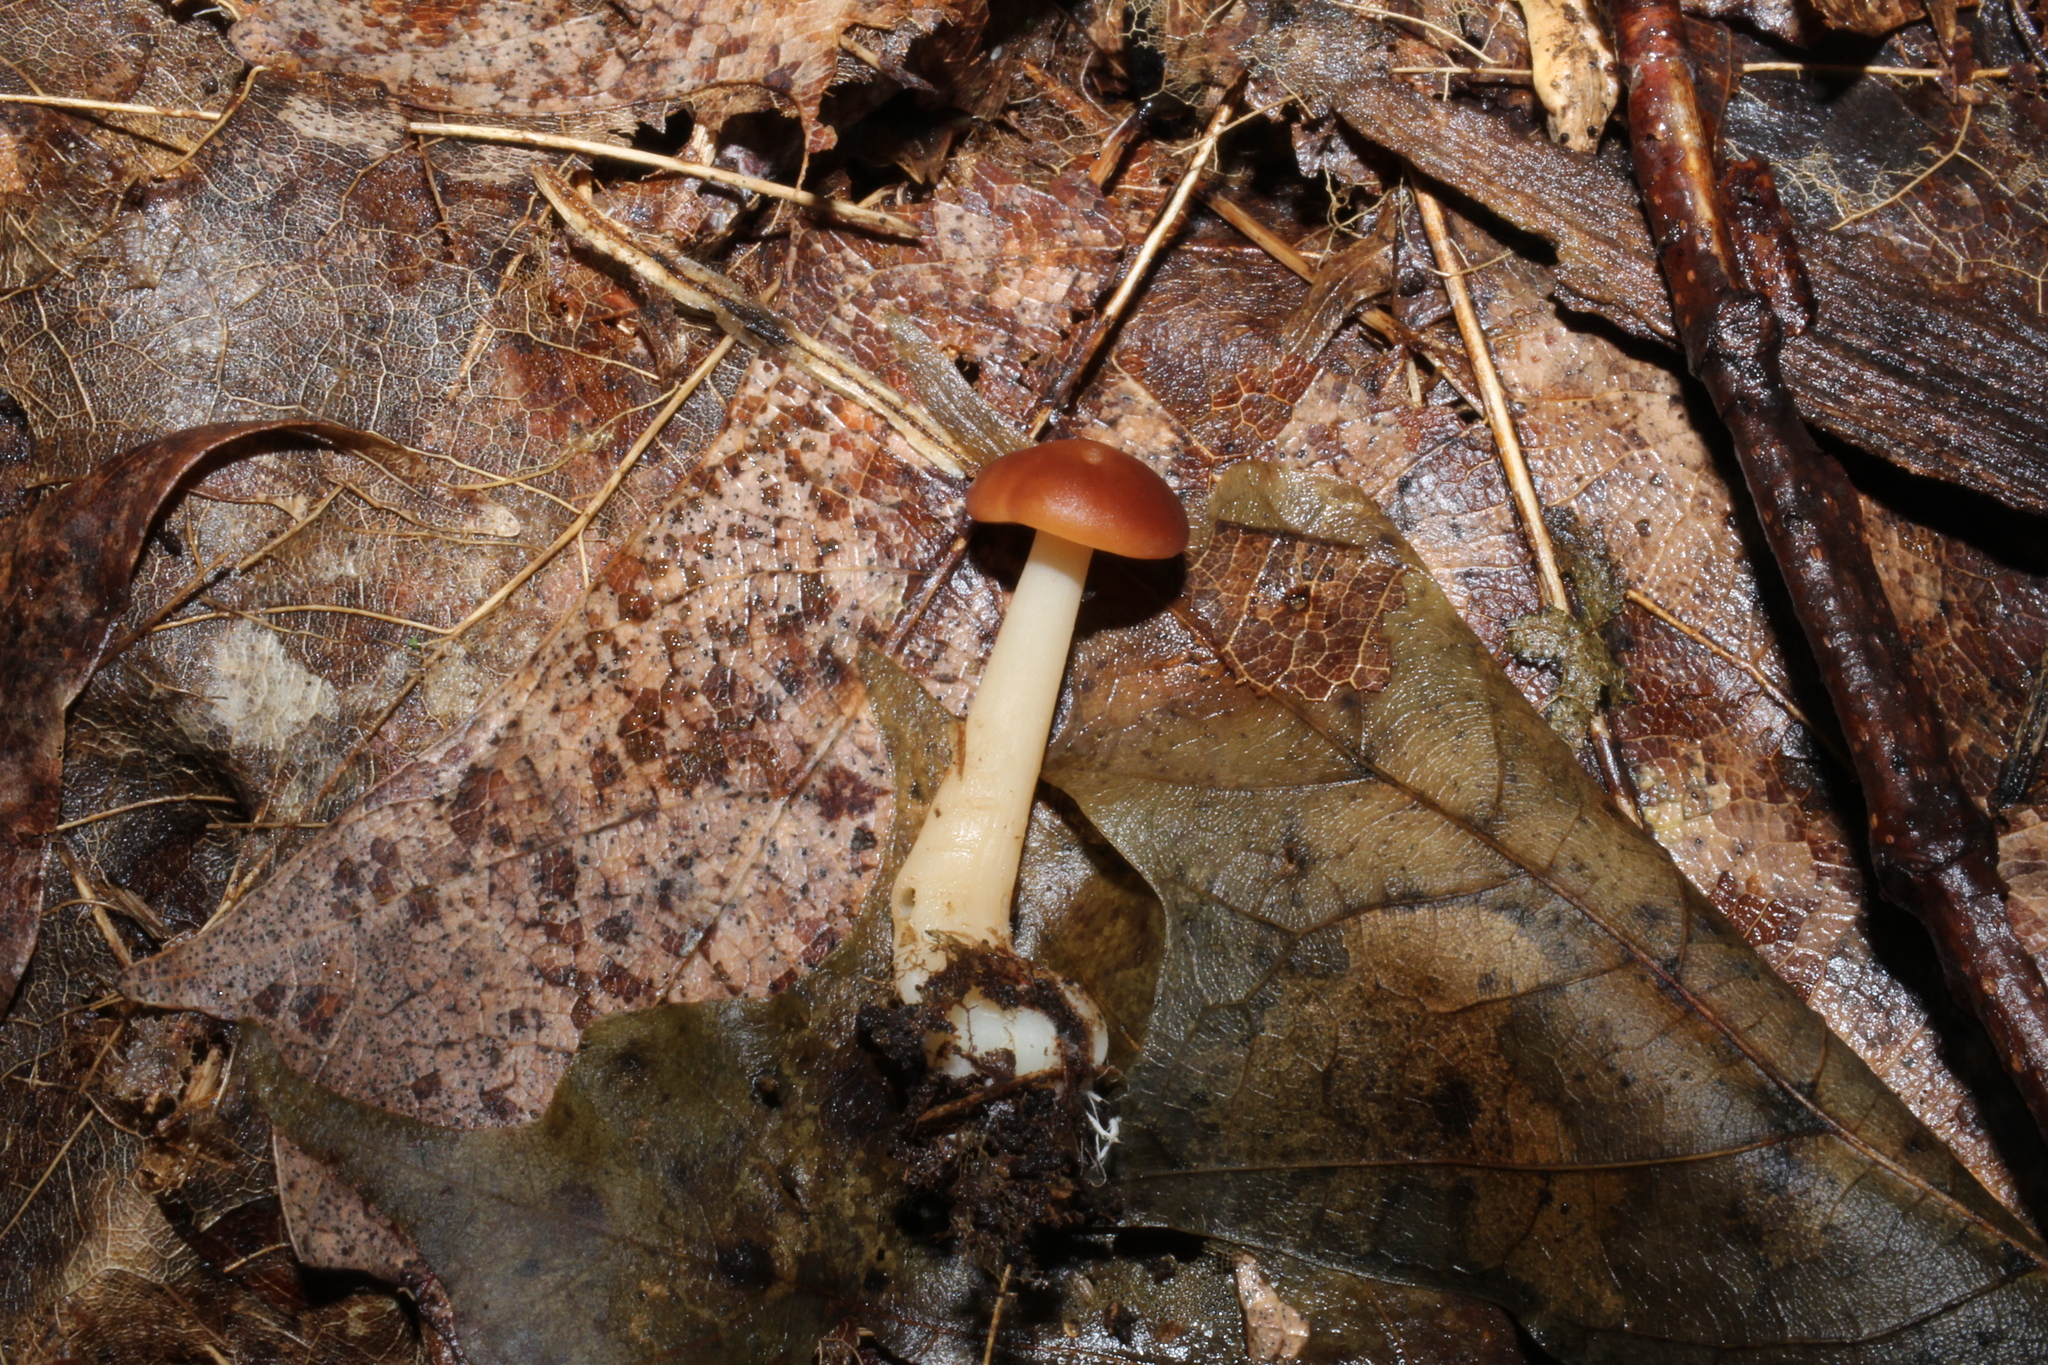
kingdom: Fungi
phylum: Basidiomycota
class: Agaricomycetes
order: Agaricales
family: Omphalotaceae
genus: Gymnopus
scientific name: Gymnopus dryophilus
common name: Penny top
